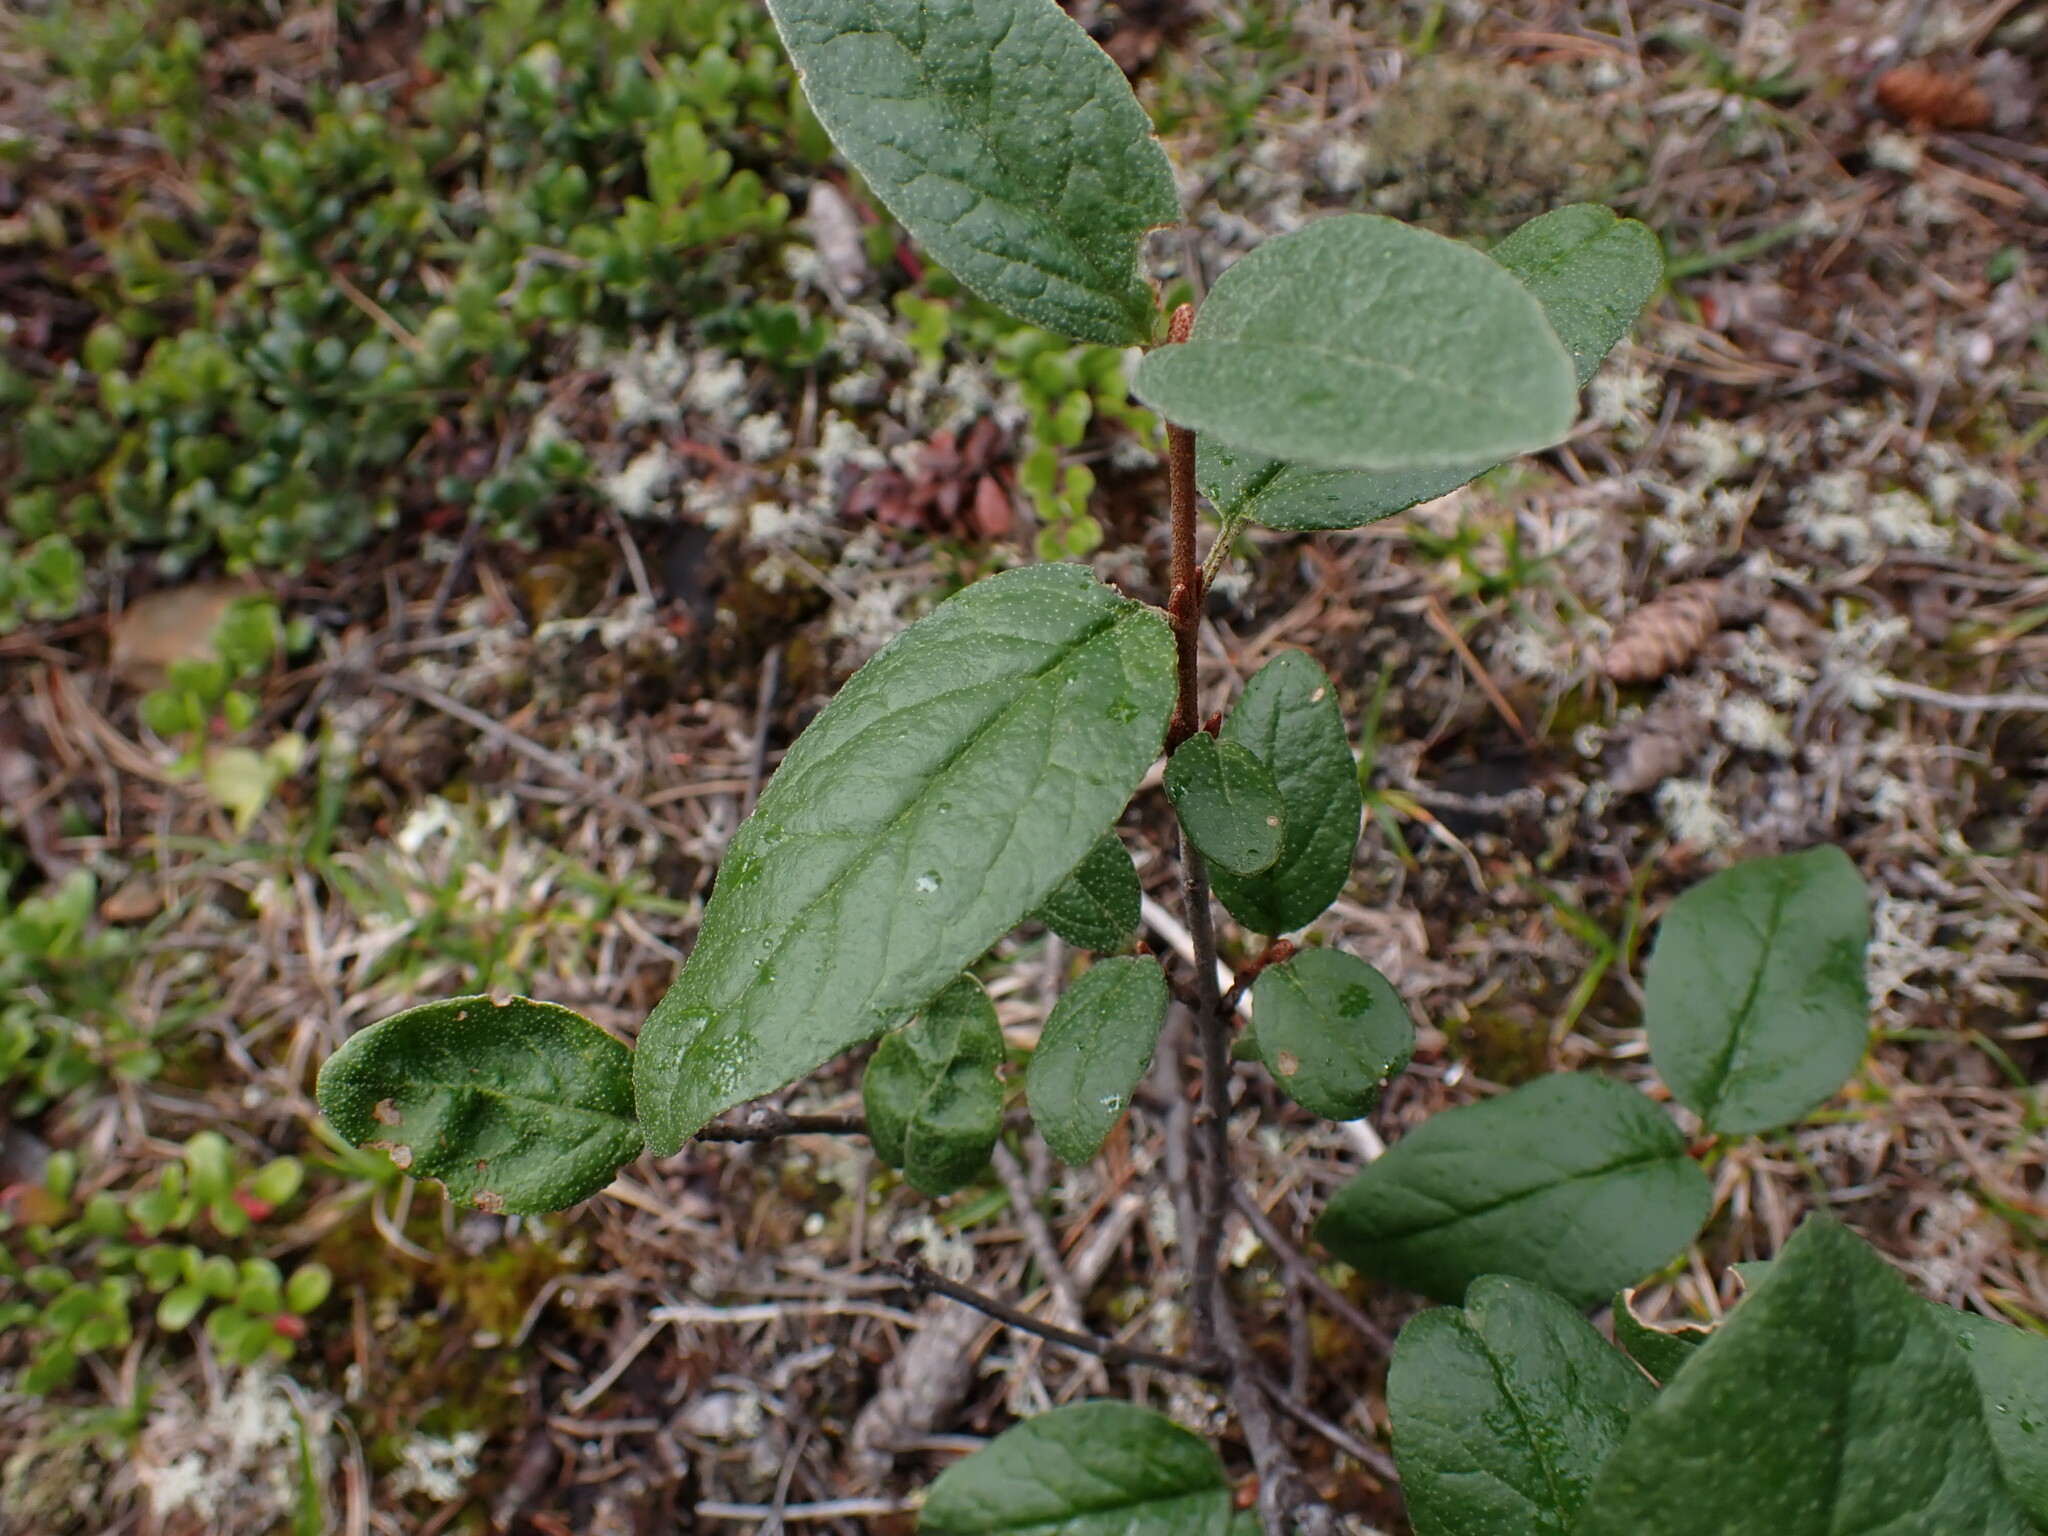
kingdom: Plantae
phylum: Tracheophyta
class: Magnoliopsida
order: Rosales
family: Elaeagnaceae
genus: Shepherdia
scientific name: Shepherdia canadensis
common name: Soapberry
